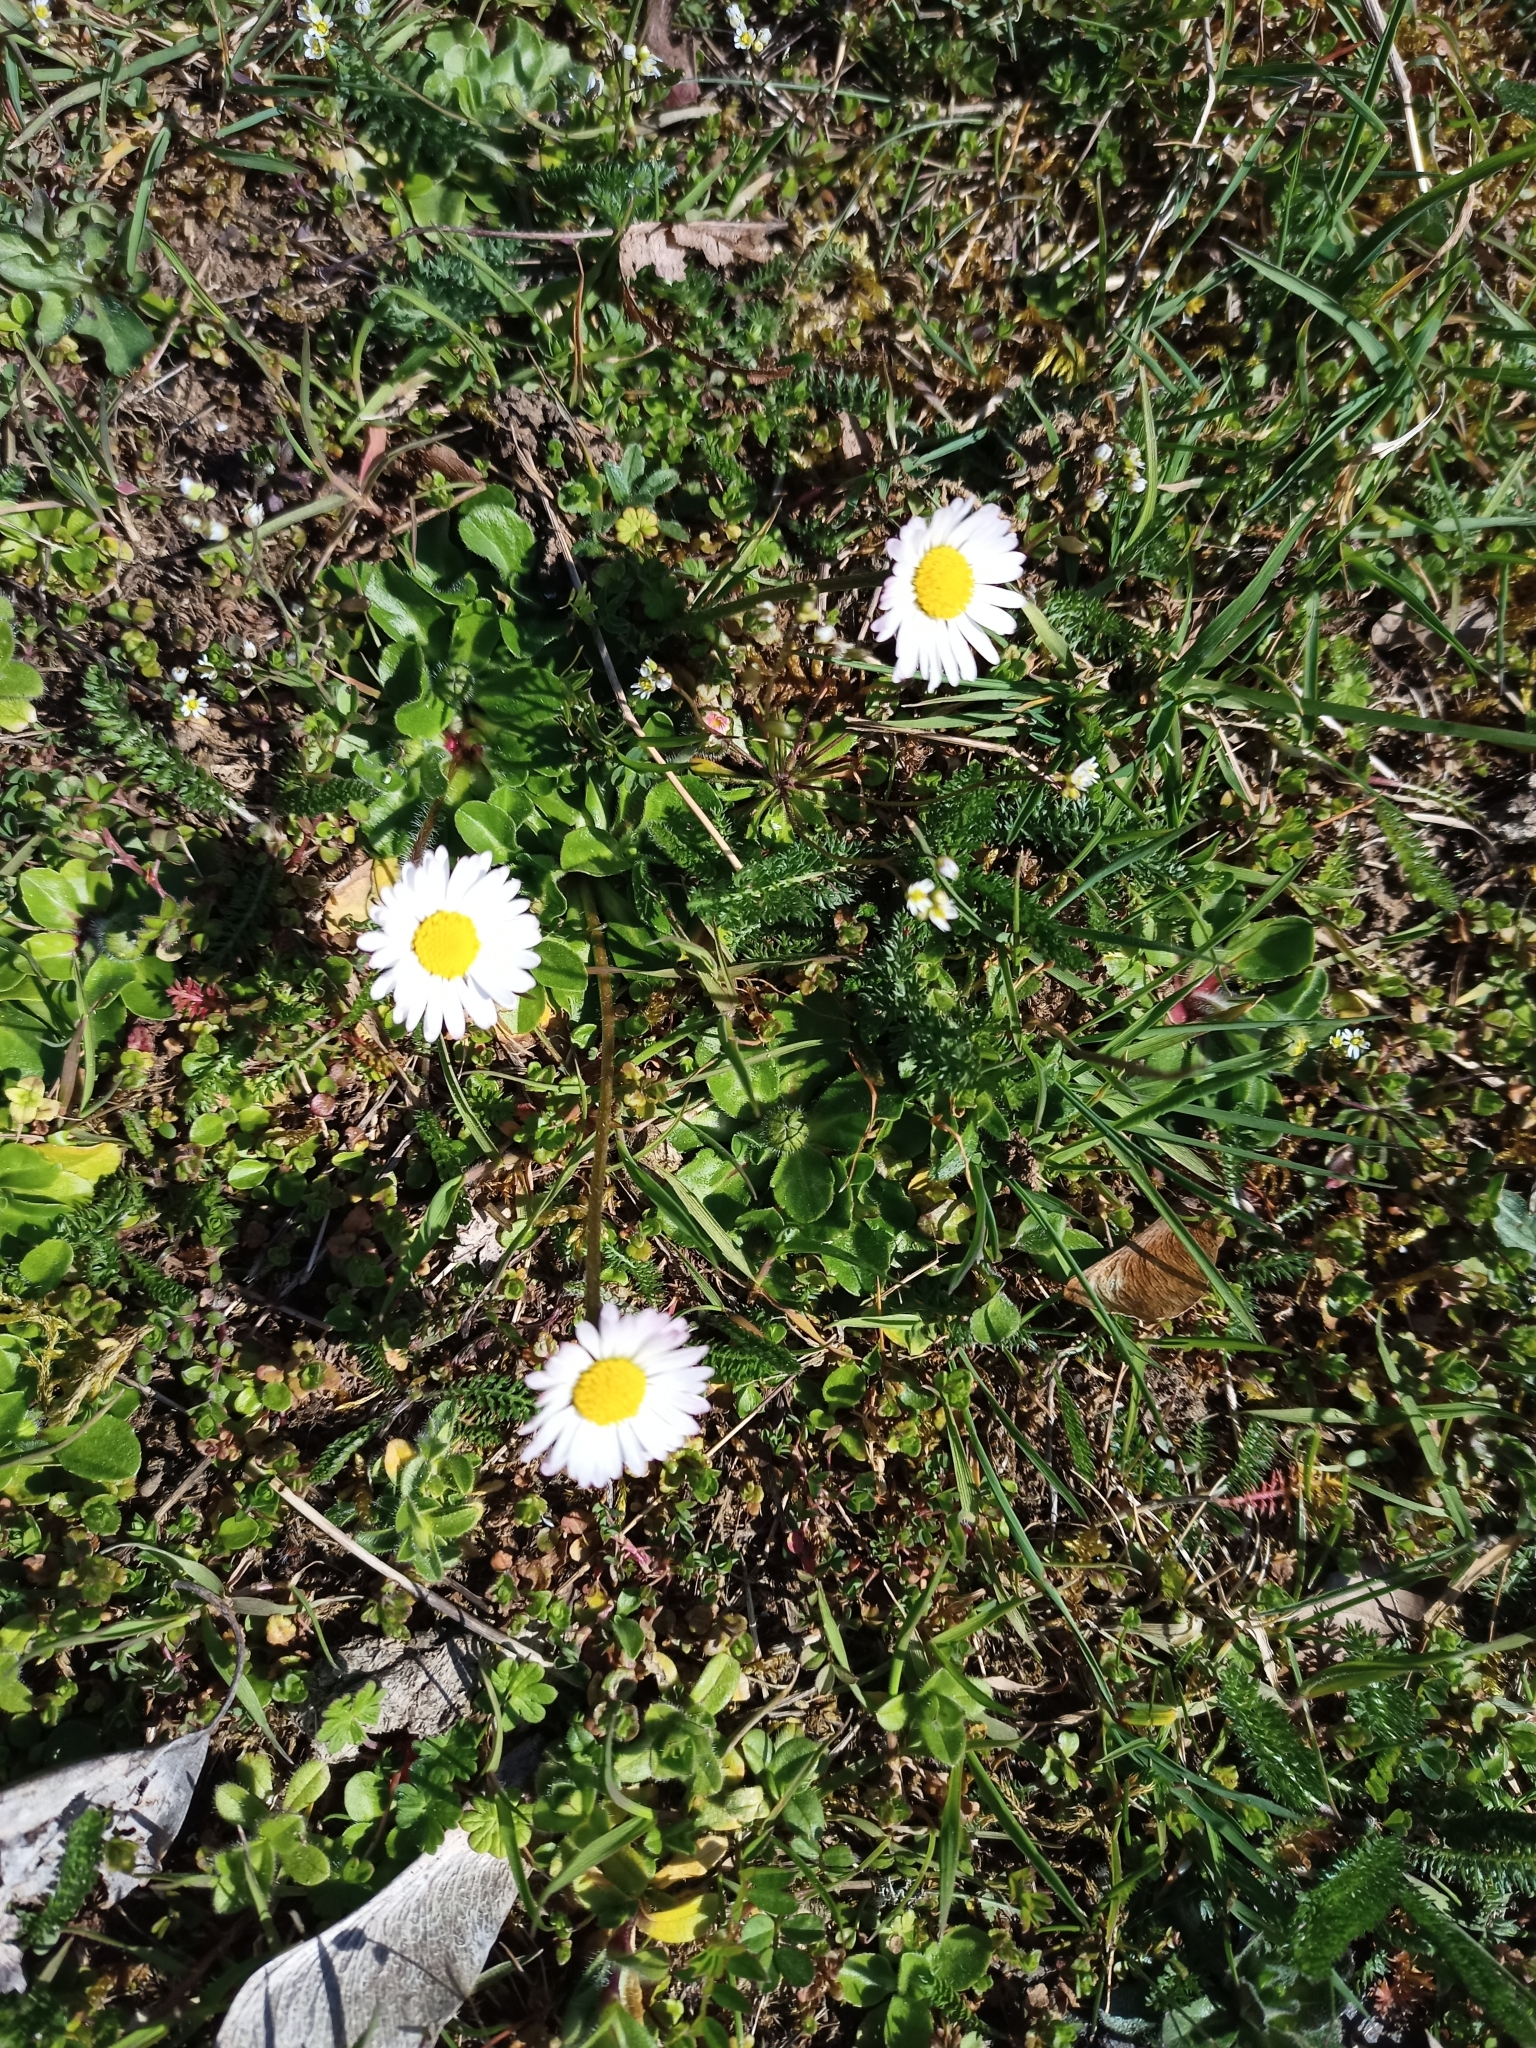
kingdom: Plantae
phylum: Tracheophyta
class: Magnoliopsida
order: Asterales
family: Asteraceae
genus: Bellis
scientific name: Bellis perennis
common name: Lawndaisy
